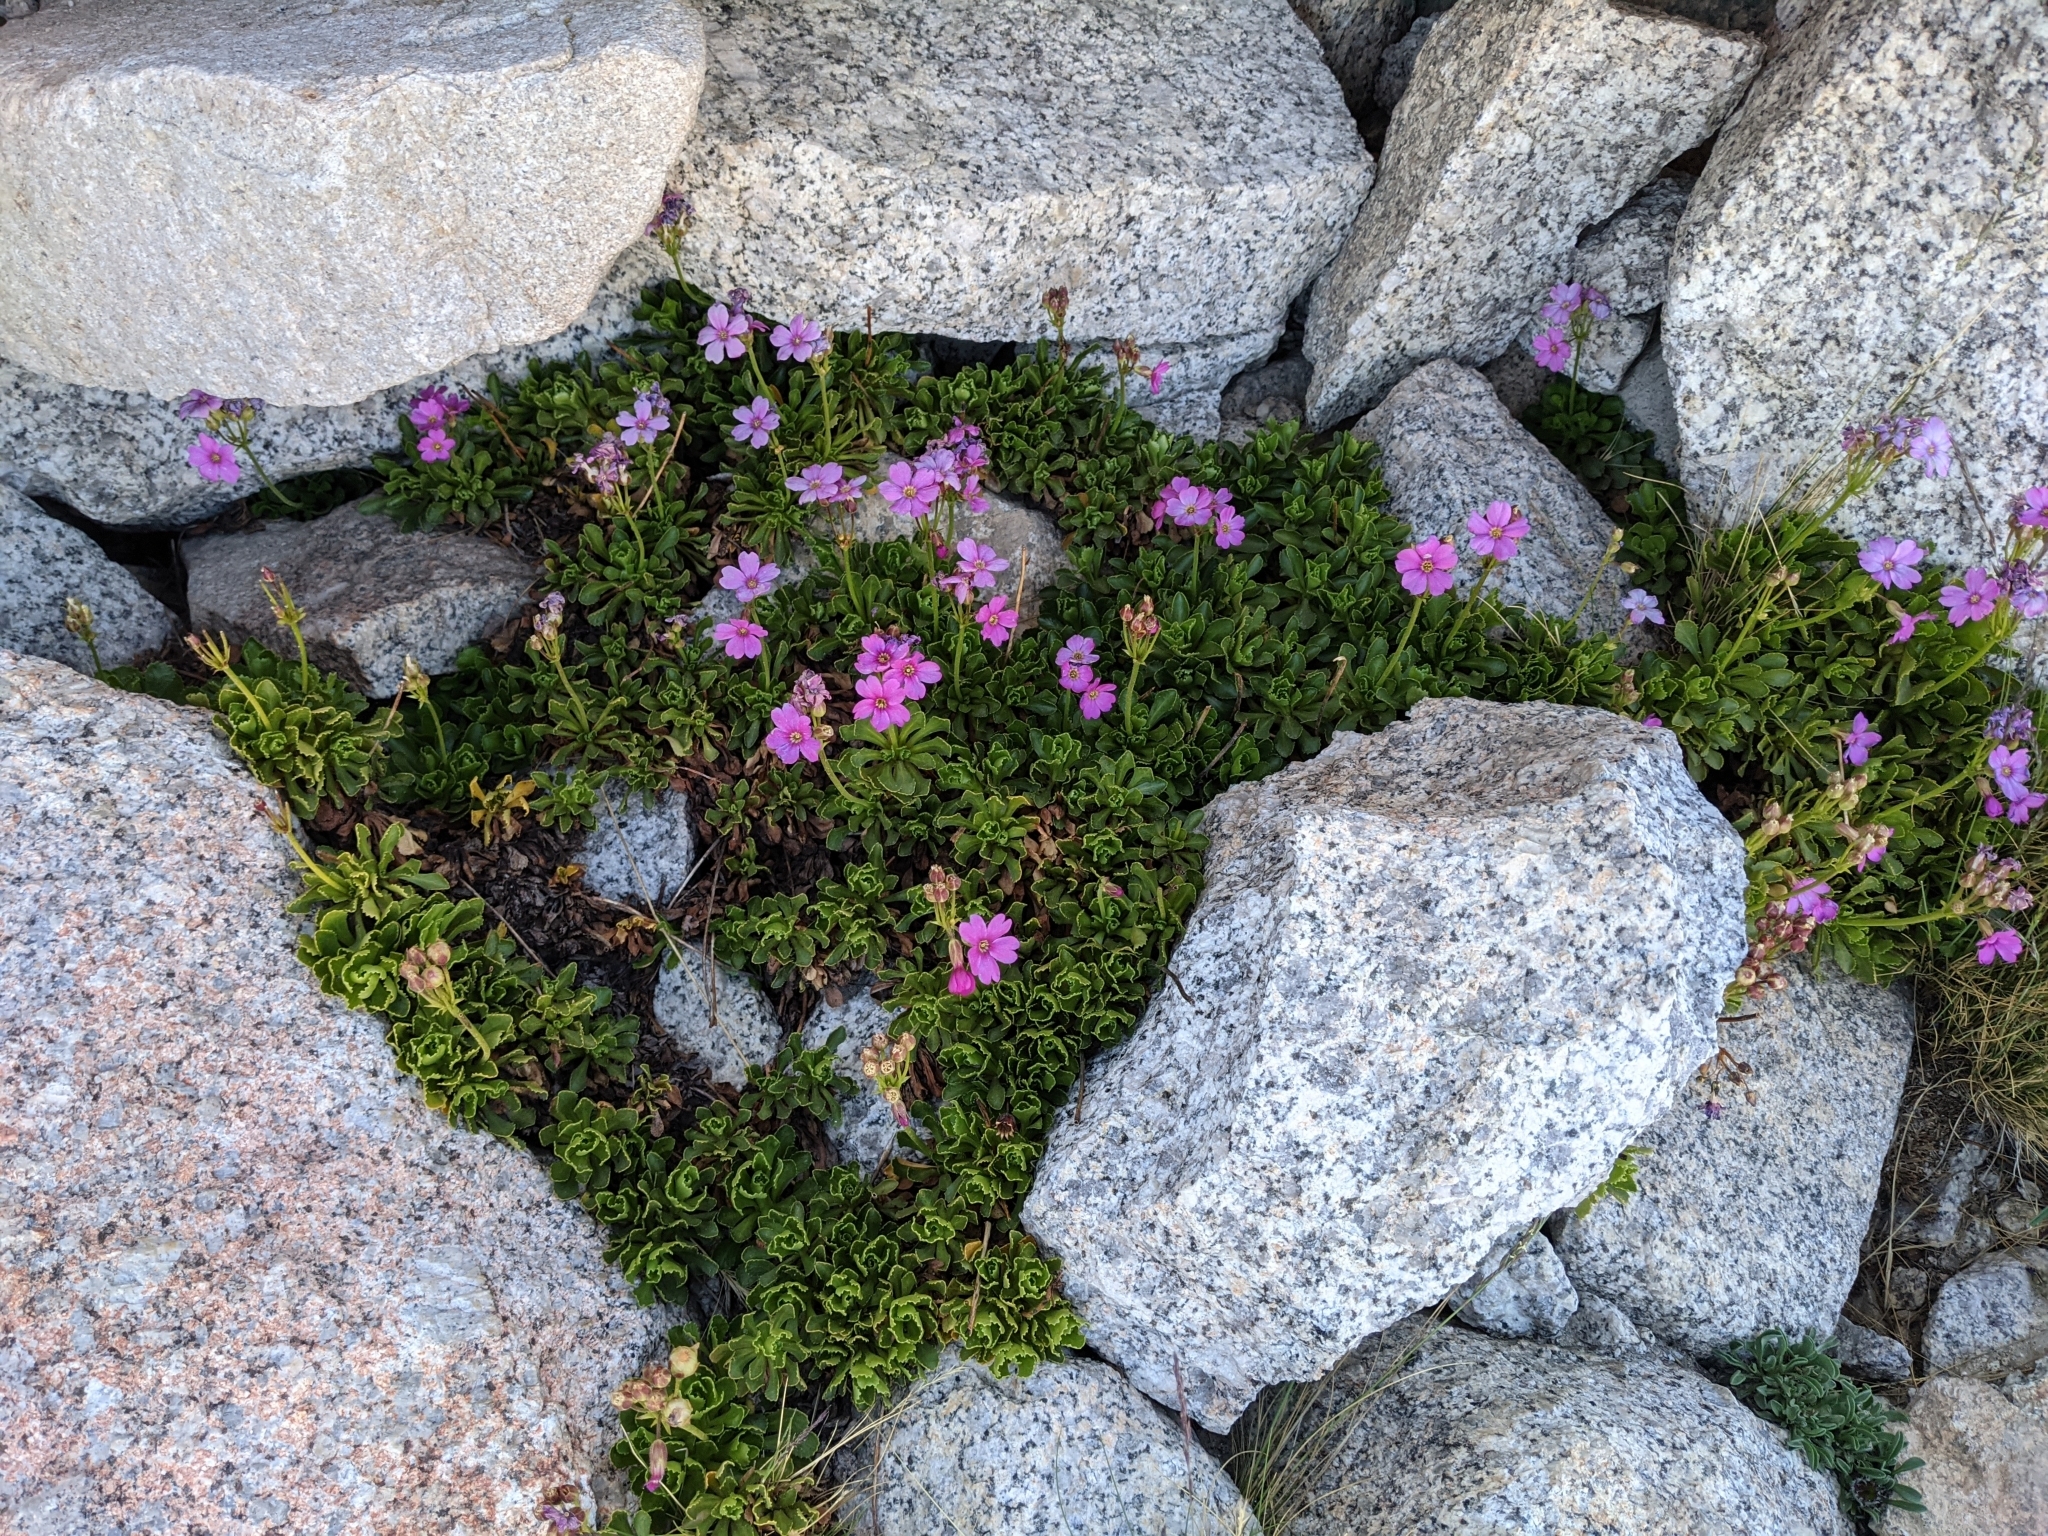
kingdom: Plantae
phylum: Tracheophyta
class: Magnoliopsida
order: Ericales
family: Primulaceae
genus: Primula
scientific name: Primula suffrutescens
